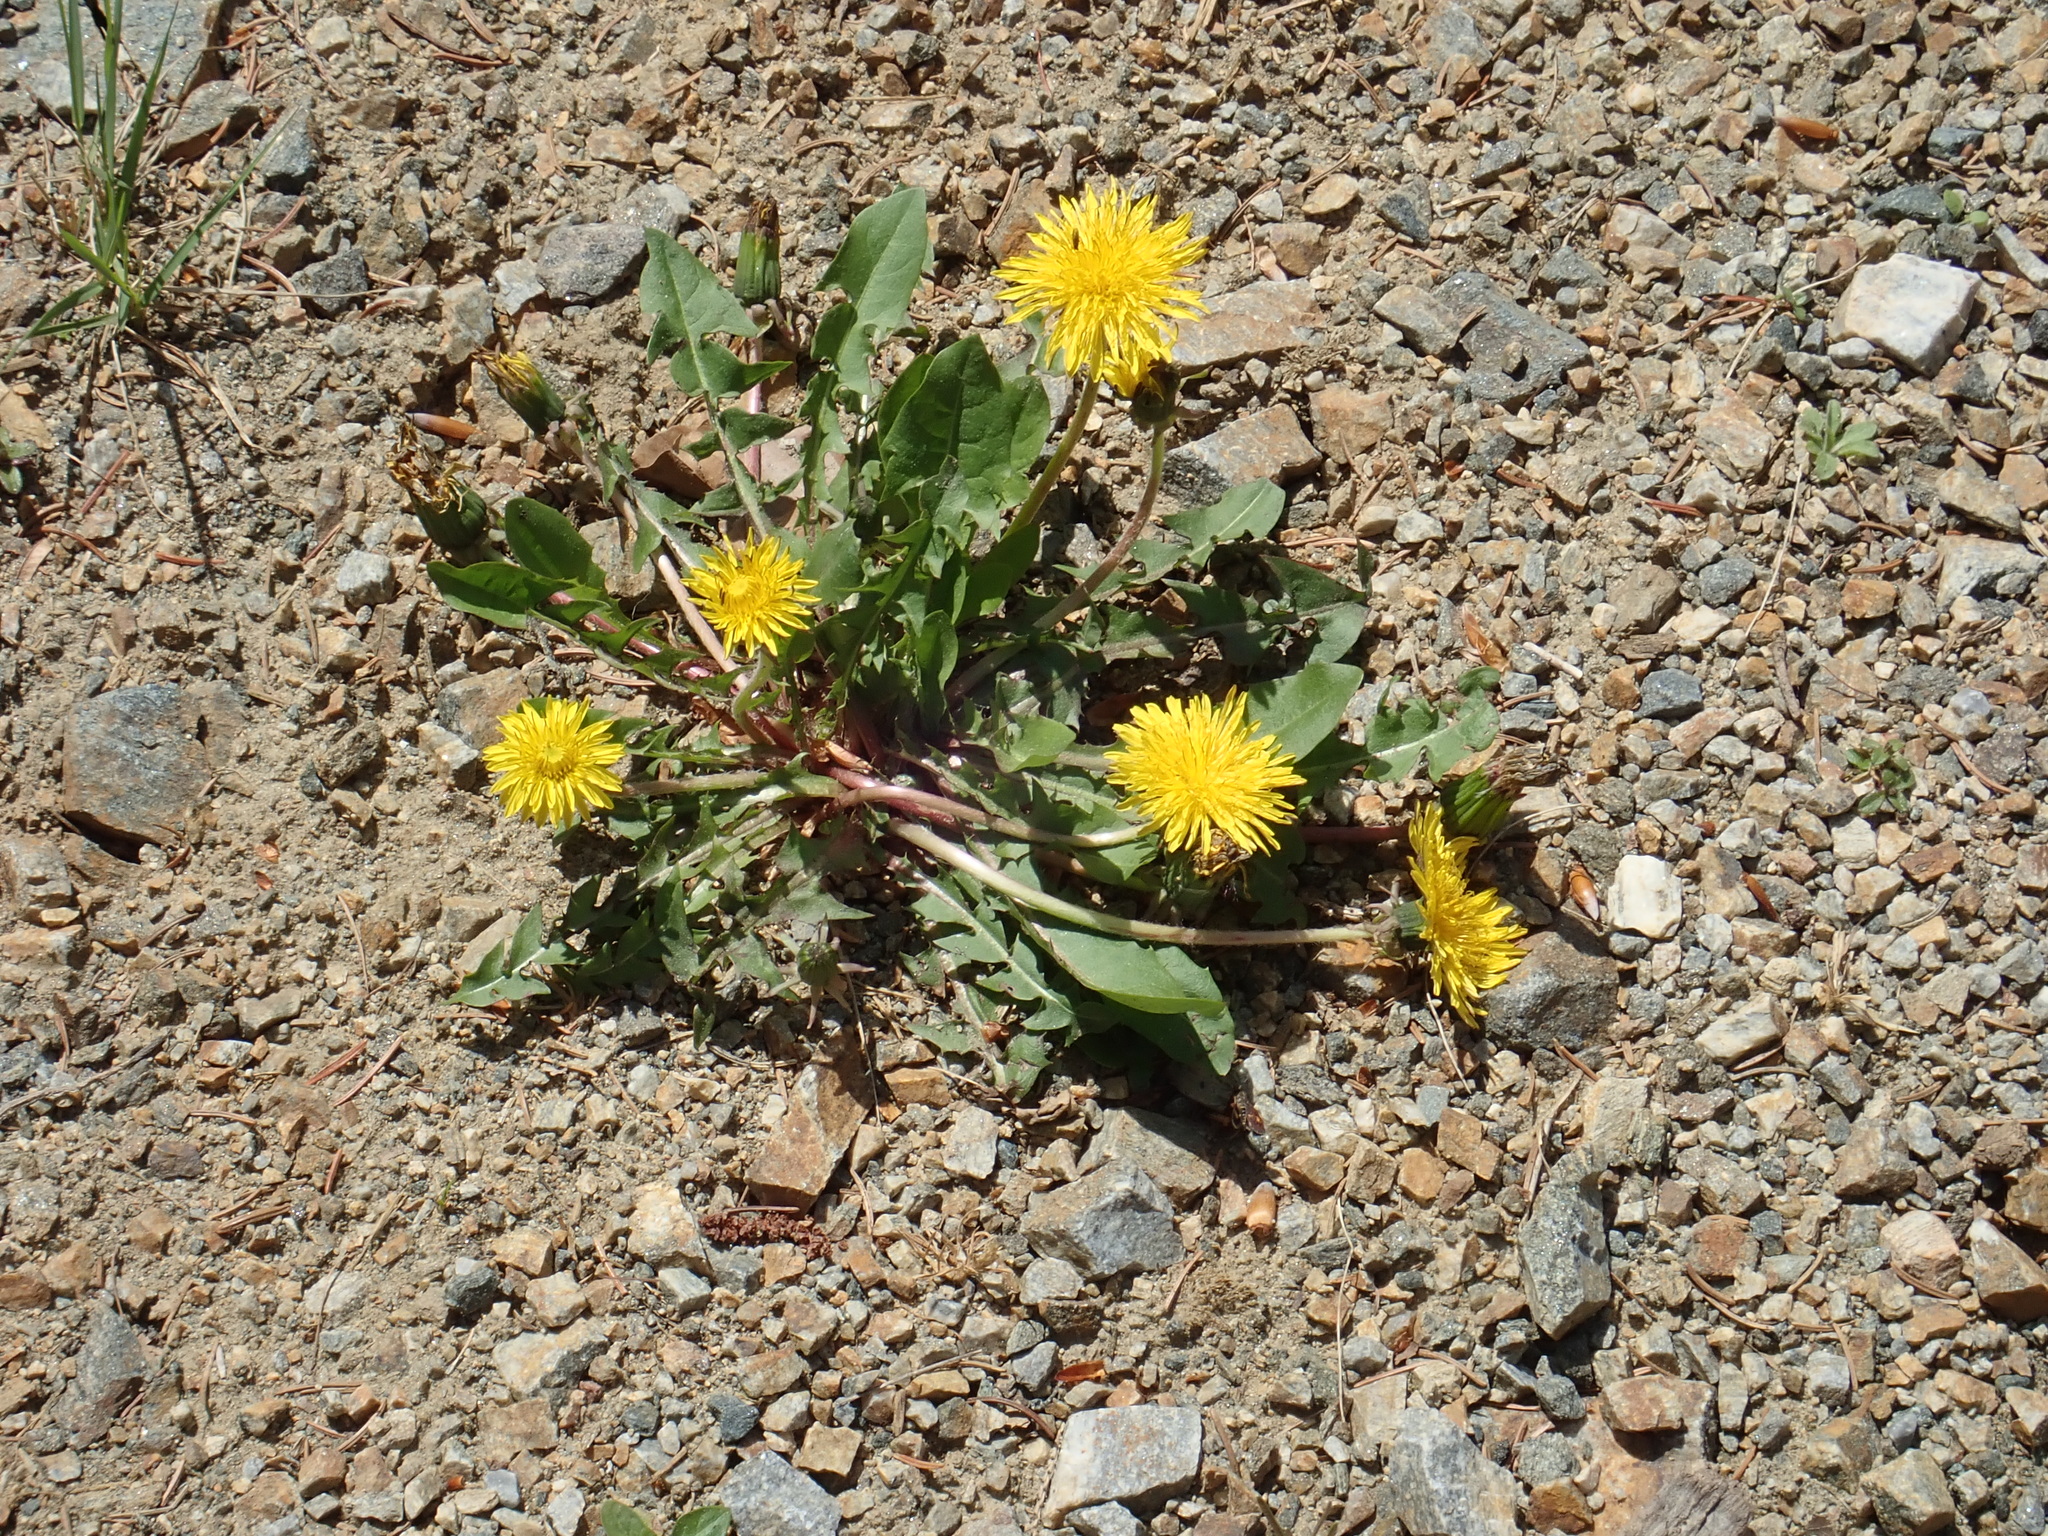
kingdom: Plantae
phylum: Tracheophyta
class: Magnoliopsida
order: Asterales
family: Asteraceae
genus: Taraxacum
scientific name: Taraxacum
